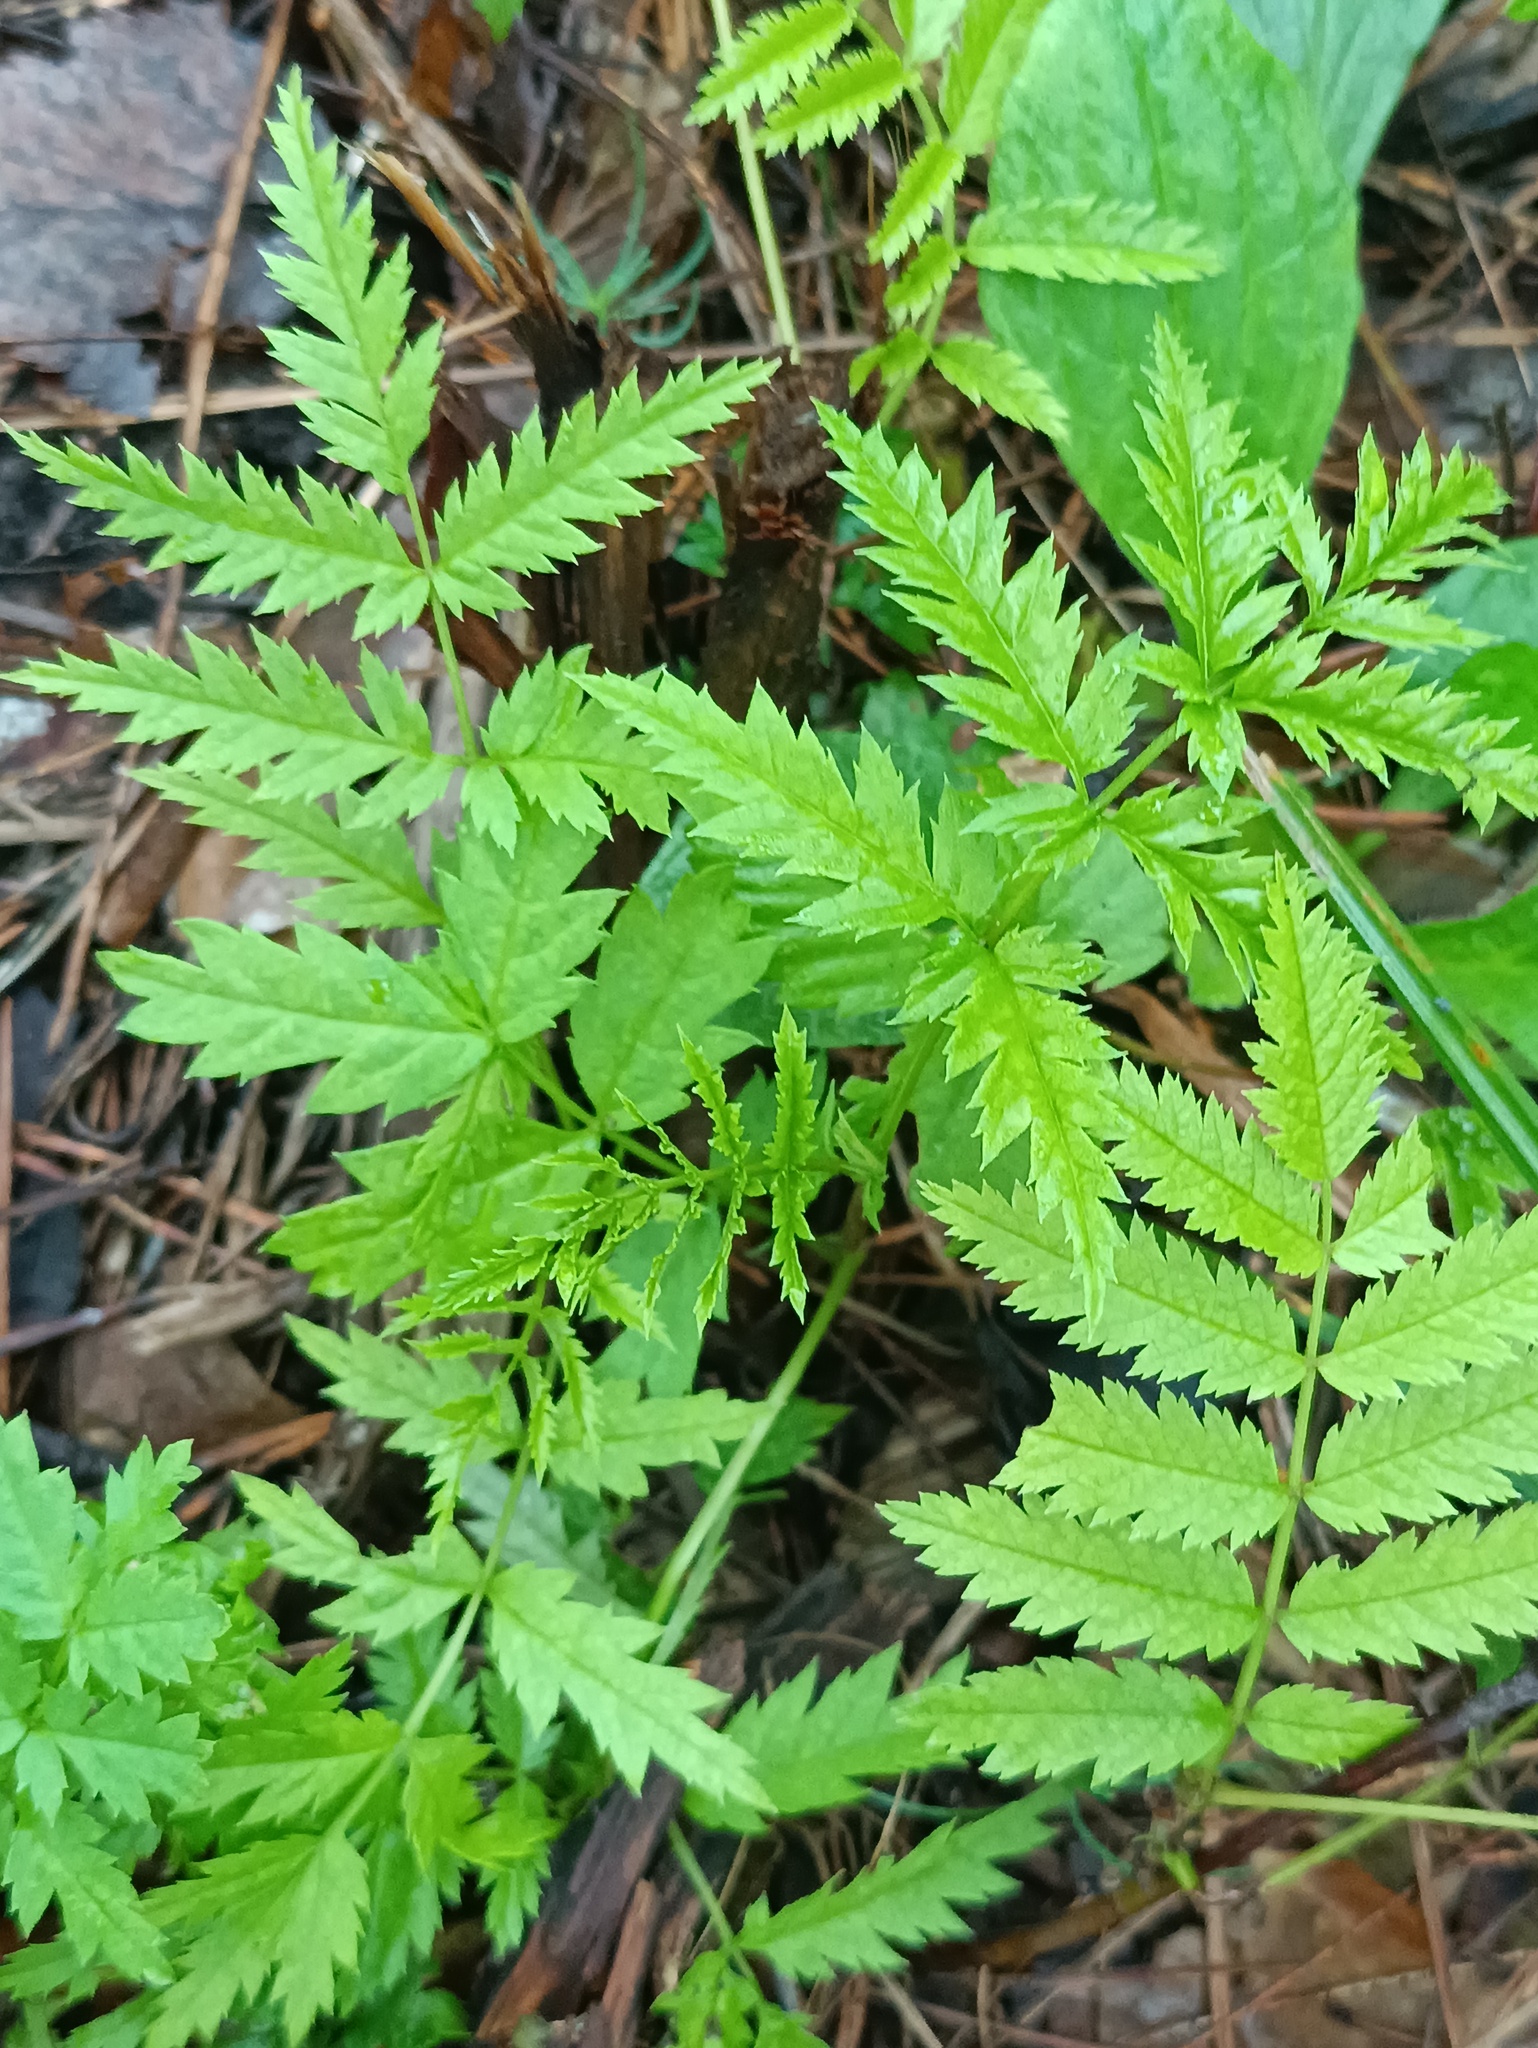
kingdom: Plantae
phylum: Tracheophyta
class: Magnoliopsida
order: Asterales
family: Asteraceae
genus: Tanacetum
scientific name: Tanacetum vulgare
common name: Common tansy
